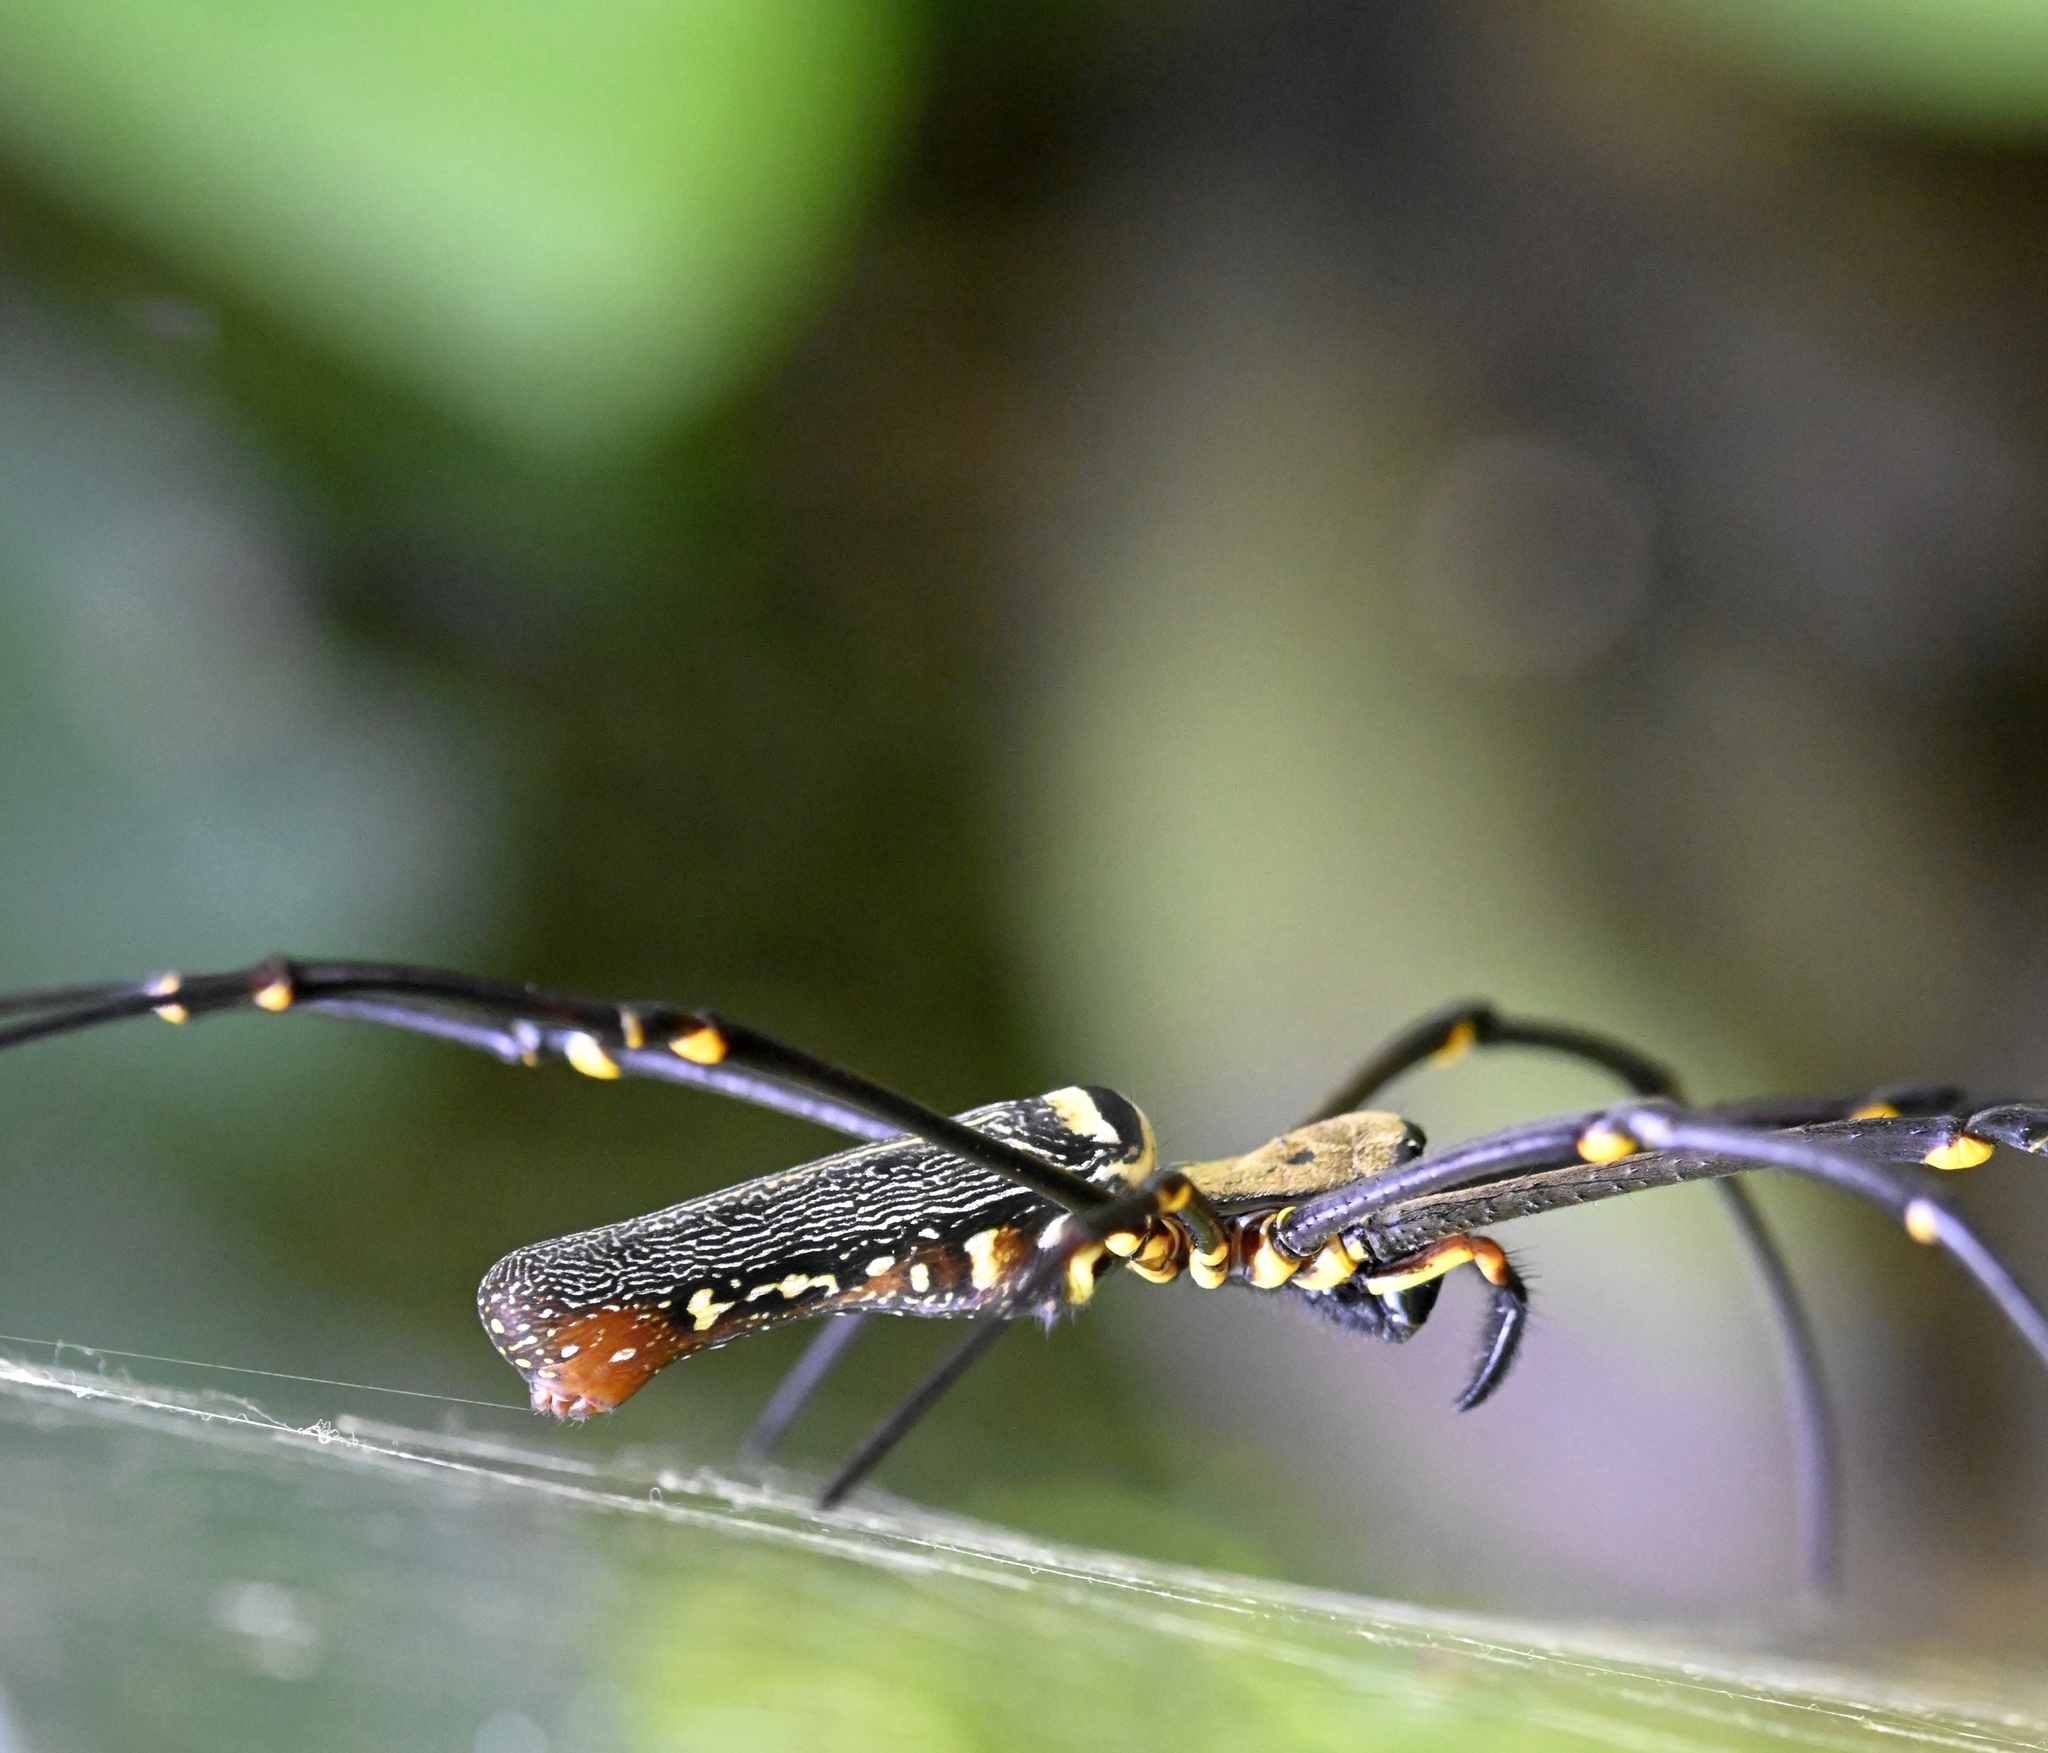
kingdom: Animalia
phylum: Arthropoda
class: Arachnida
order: Araneae
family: Araneidae
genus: Nephila
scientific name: Nephila pilipes
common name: Giant golden orb weaver
